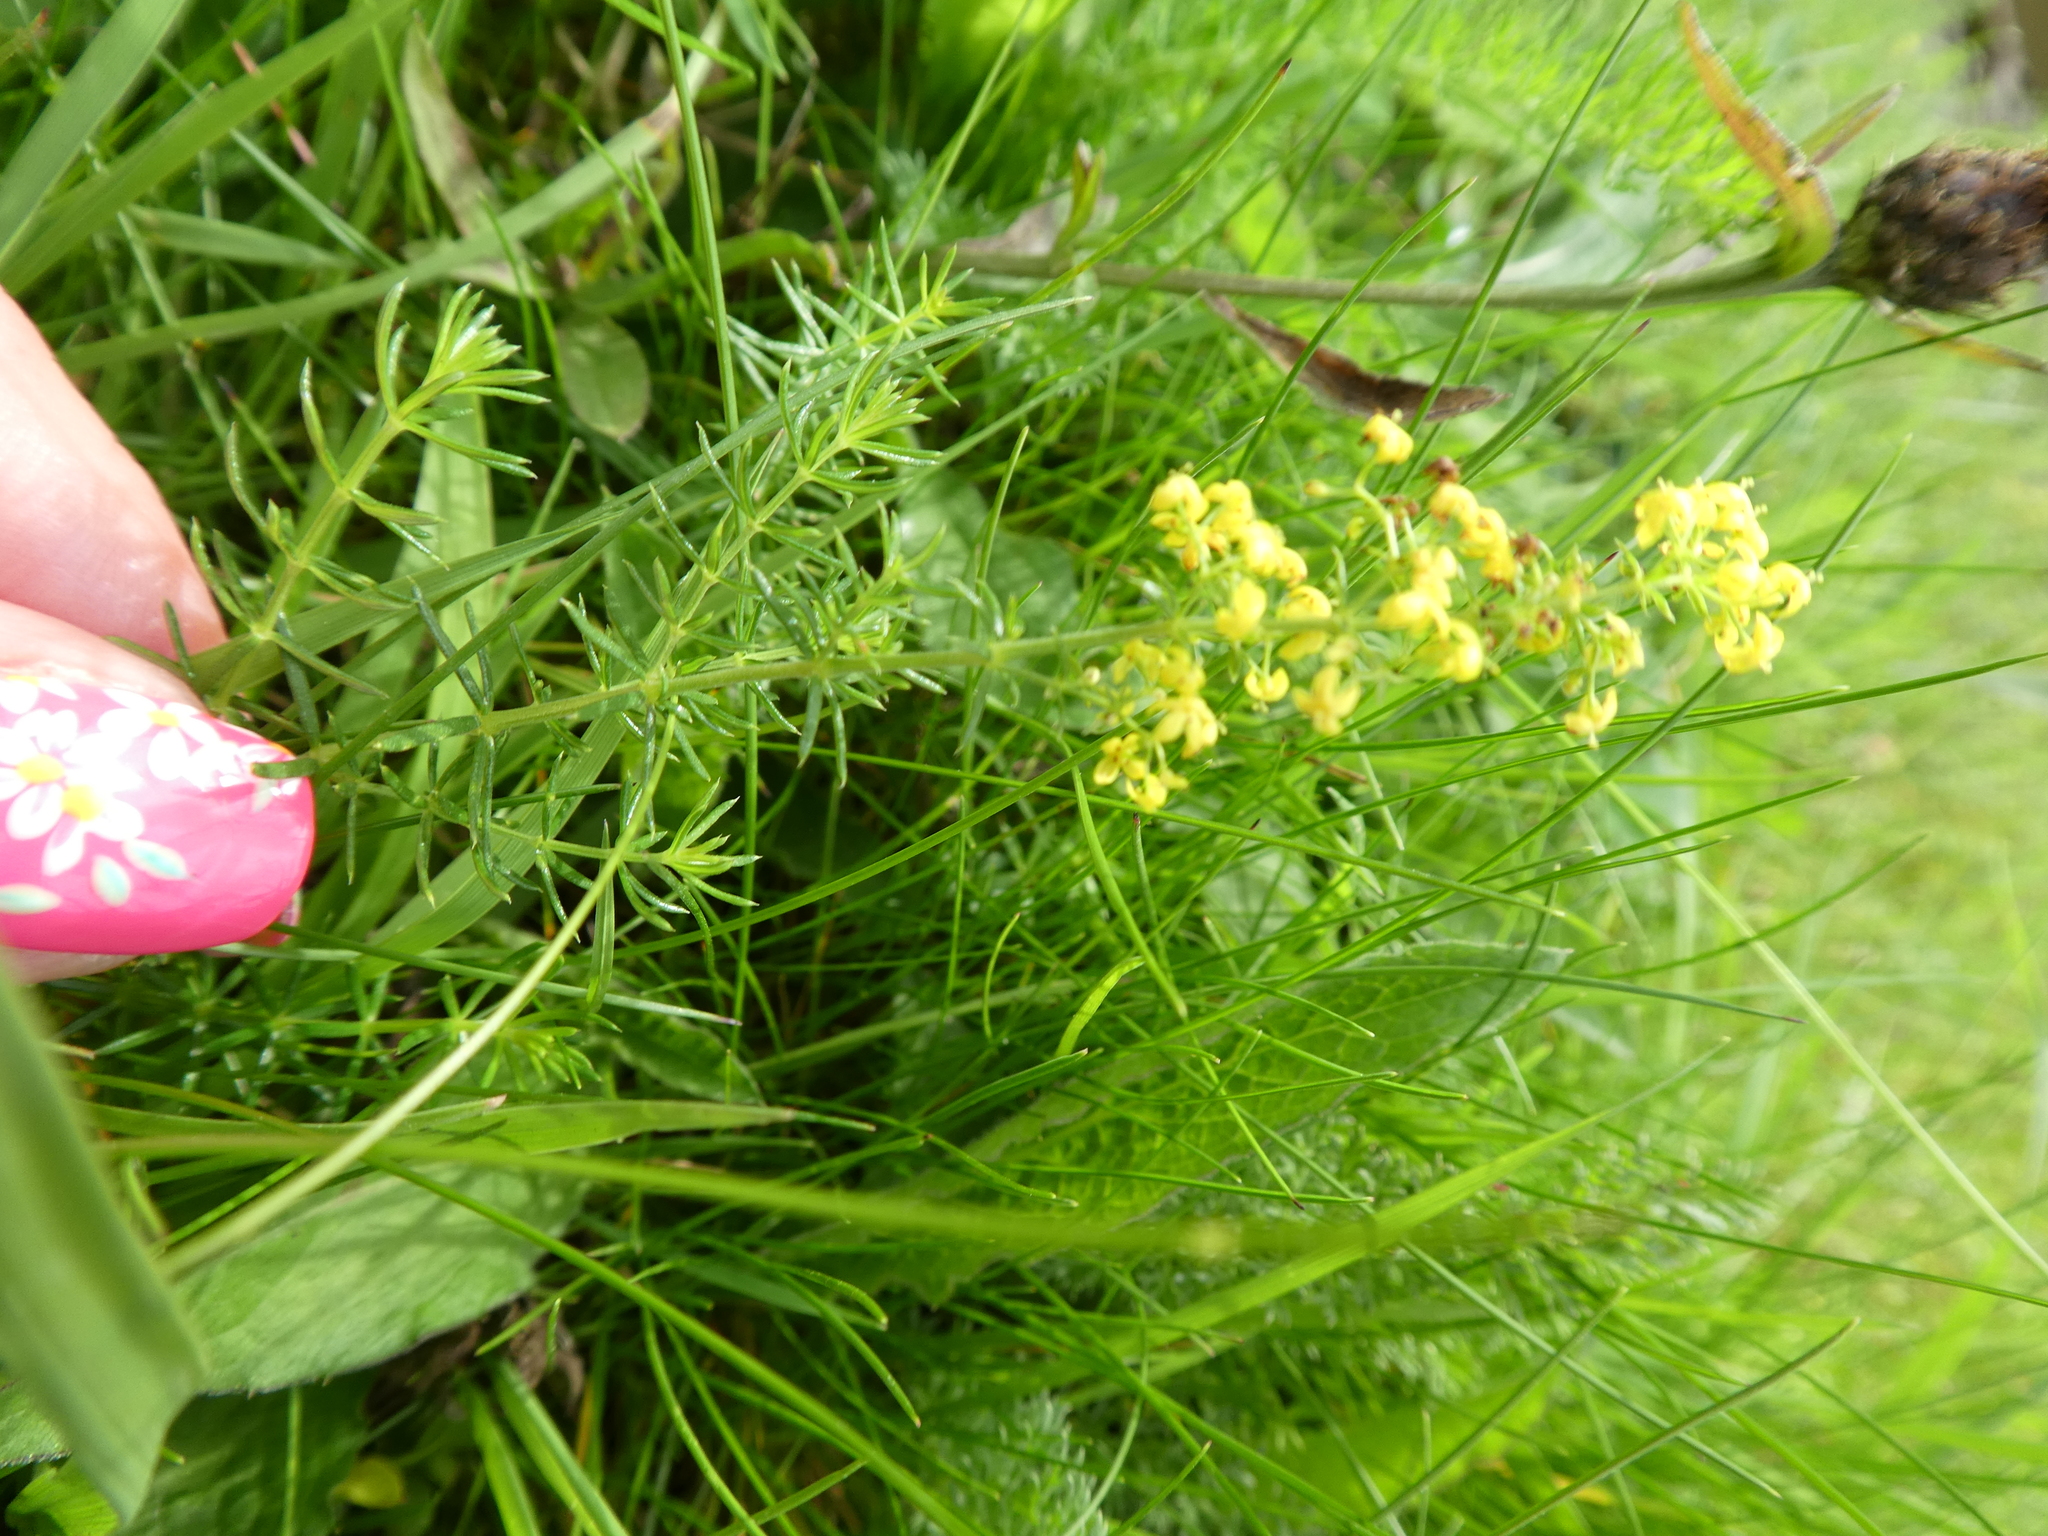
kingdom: Plantae
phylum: Tracheophyta
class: Magnoliopsida
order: Gentianales
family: Rubiaceae
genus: Galium
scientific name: Galium verum
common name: Lady's bedstraw
